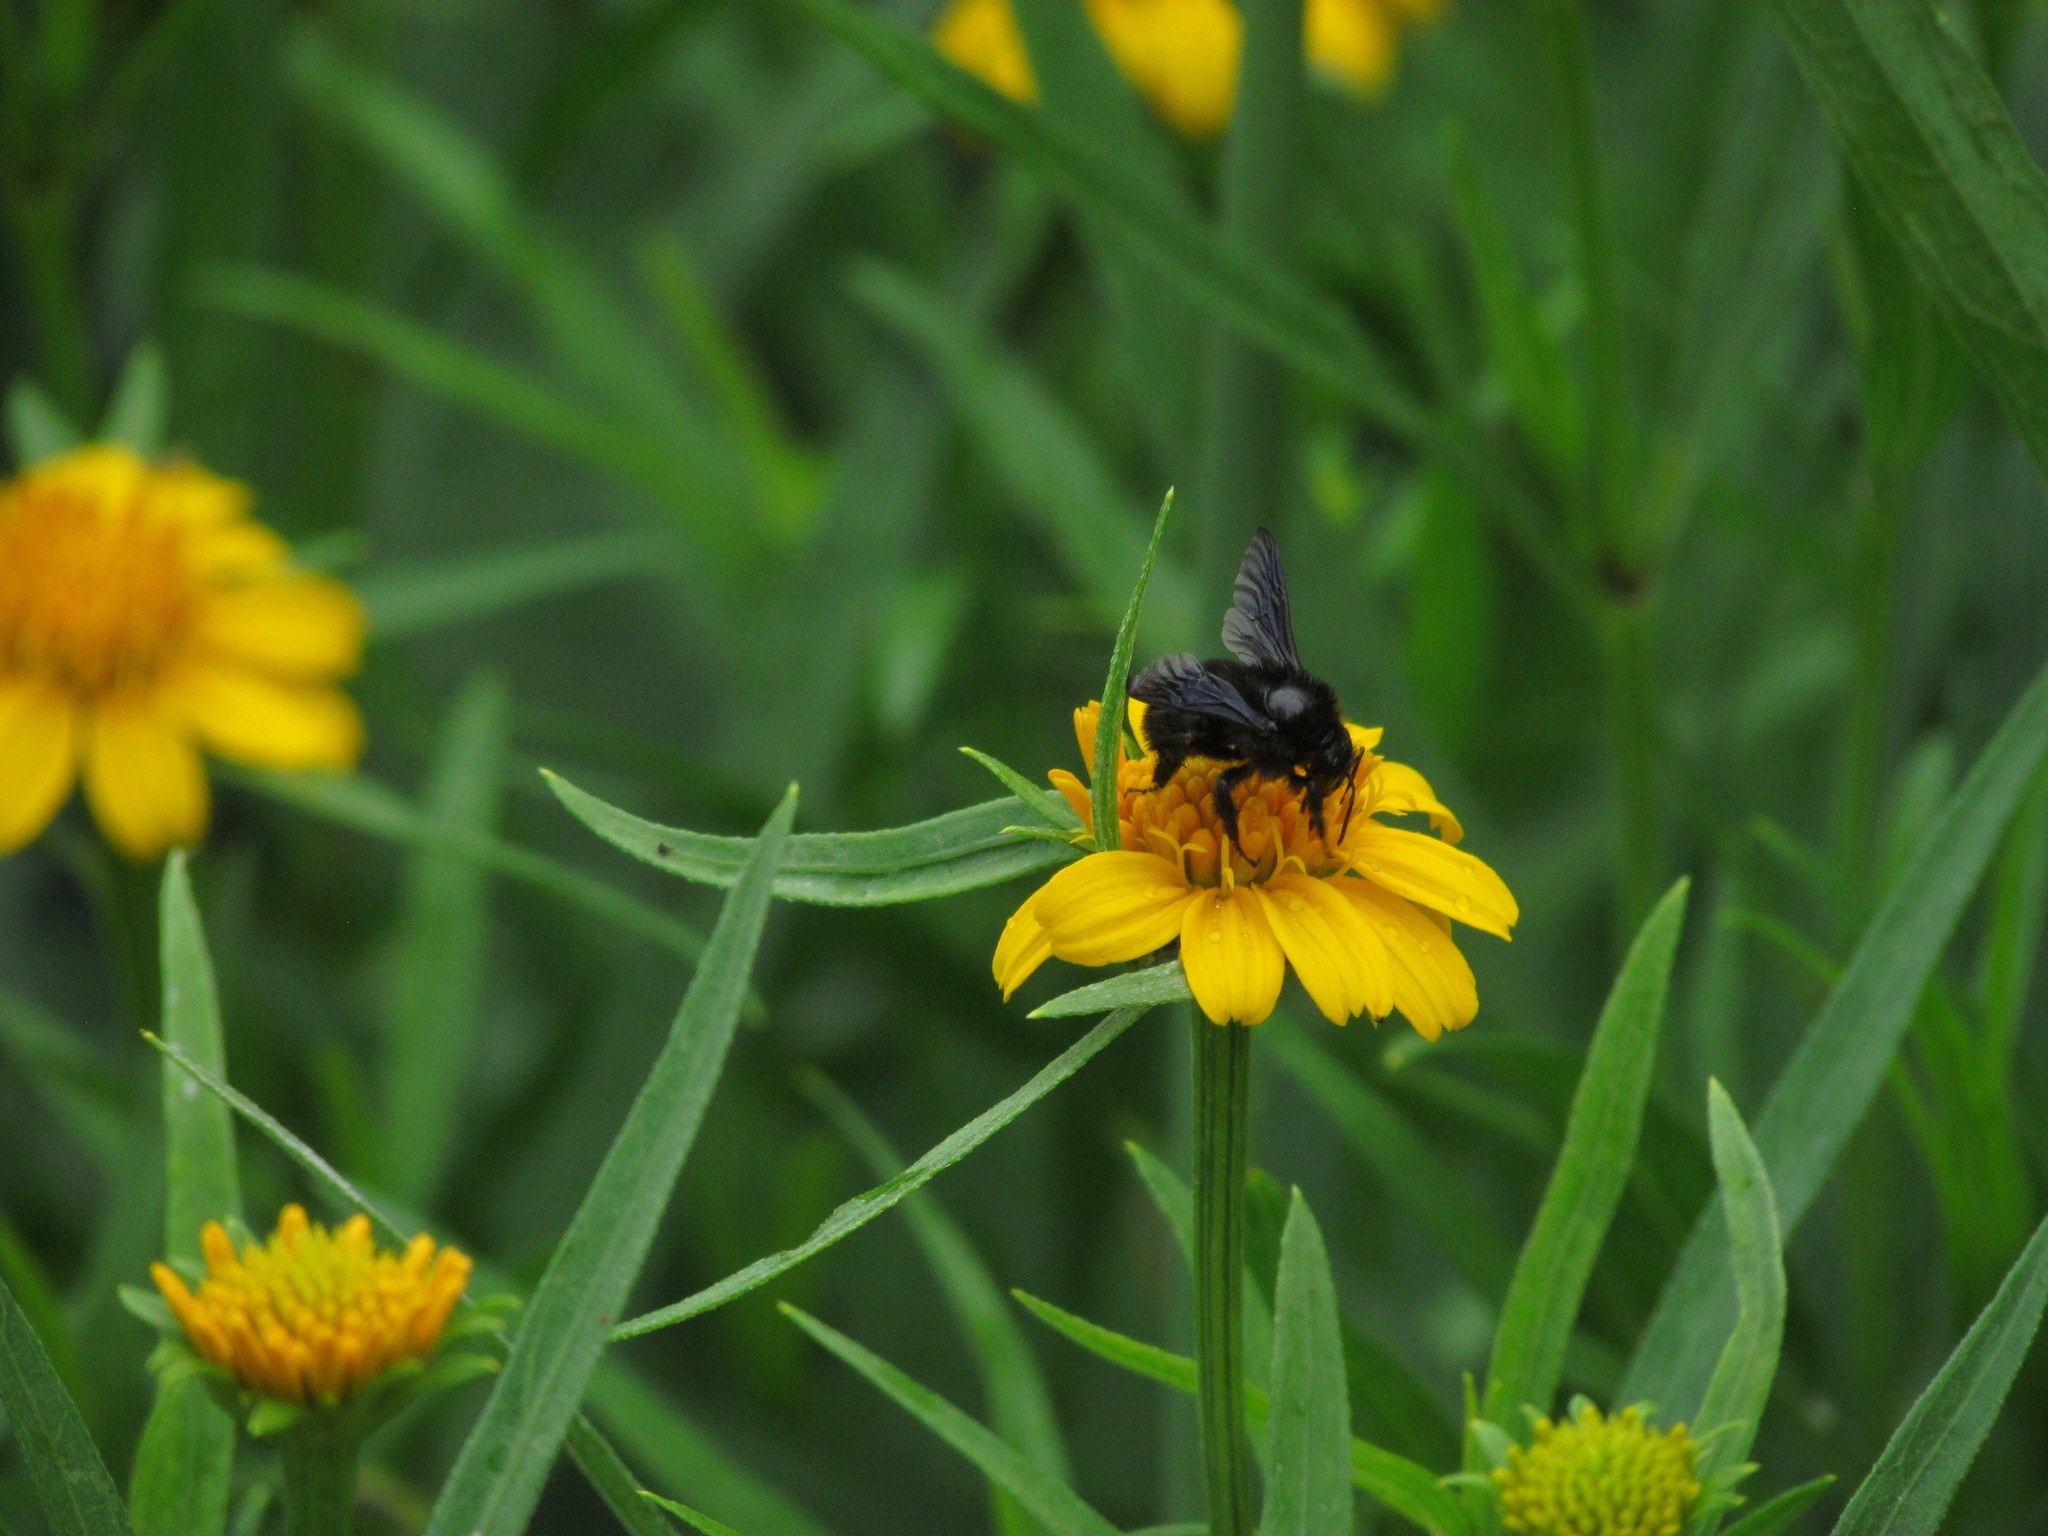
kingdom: Animalia
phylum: Arthropoda
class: Insecta
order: Hymenoptera
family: Apidae
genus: Bombus
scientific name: Bombus pauloensis
